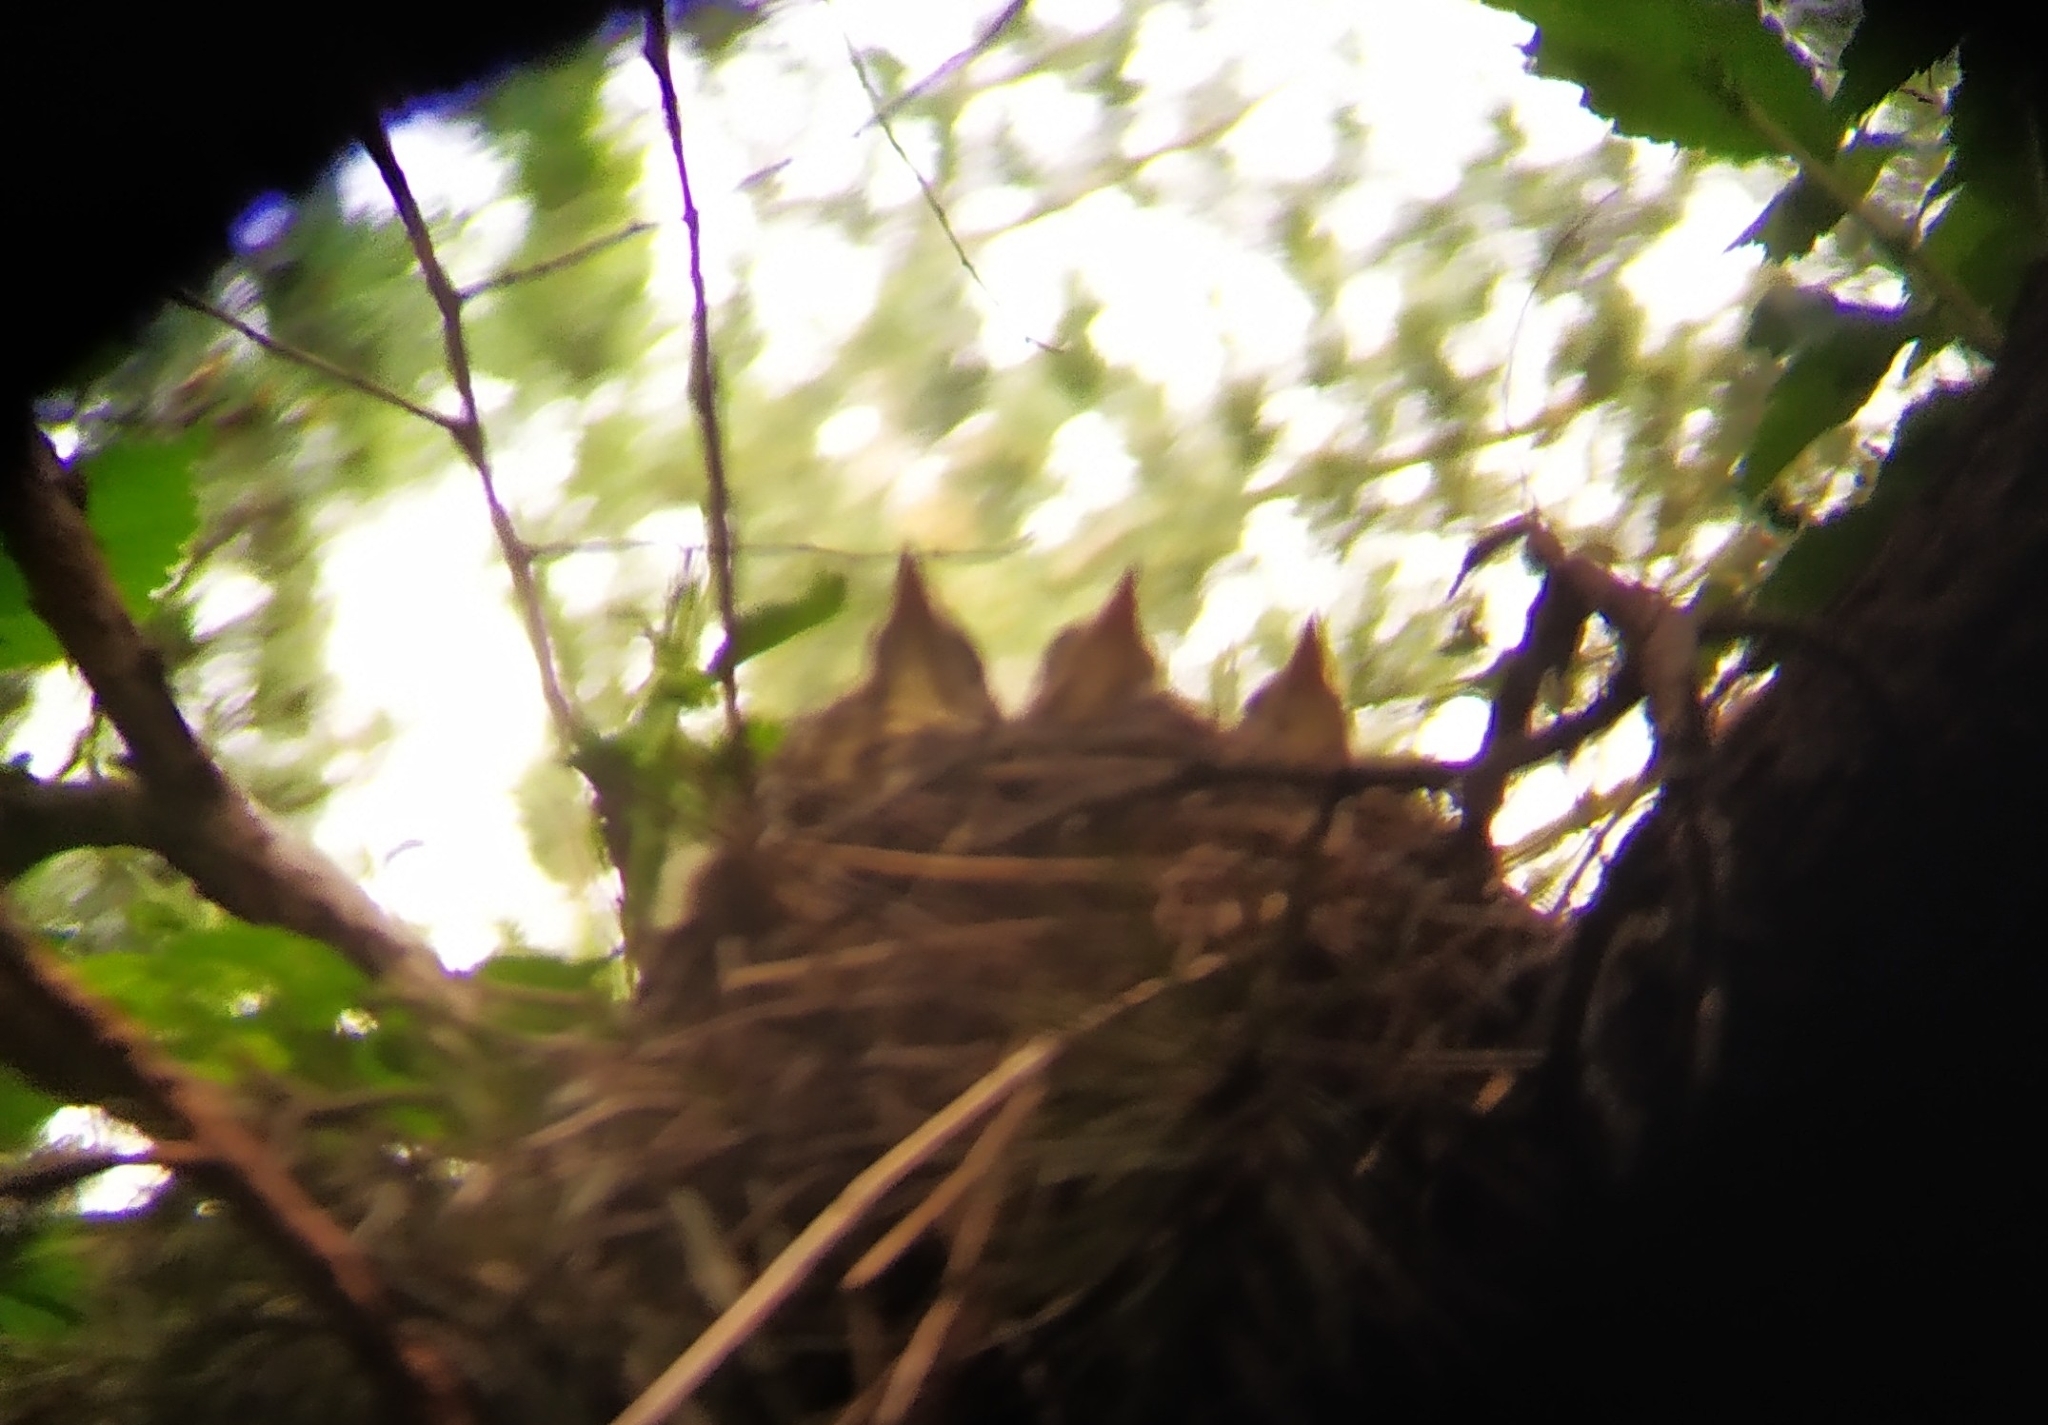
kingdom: Animalia
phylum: Chordata
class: Aves
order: Passeriformes
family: Turdidae
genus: Turdus
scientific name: Turdus pilaris
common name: Fieldfare
